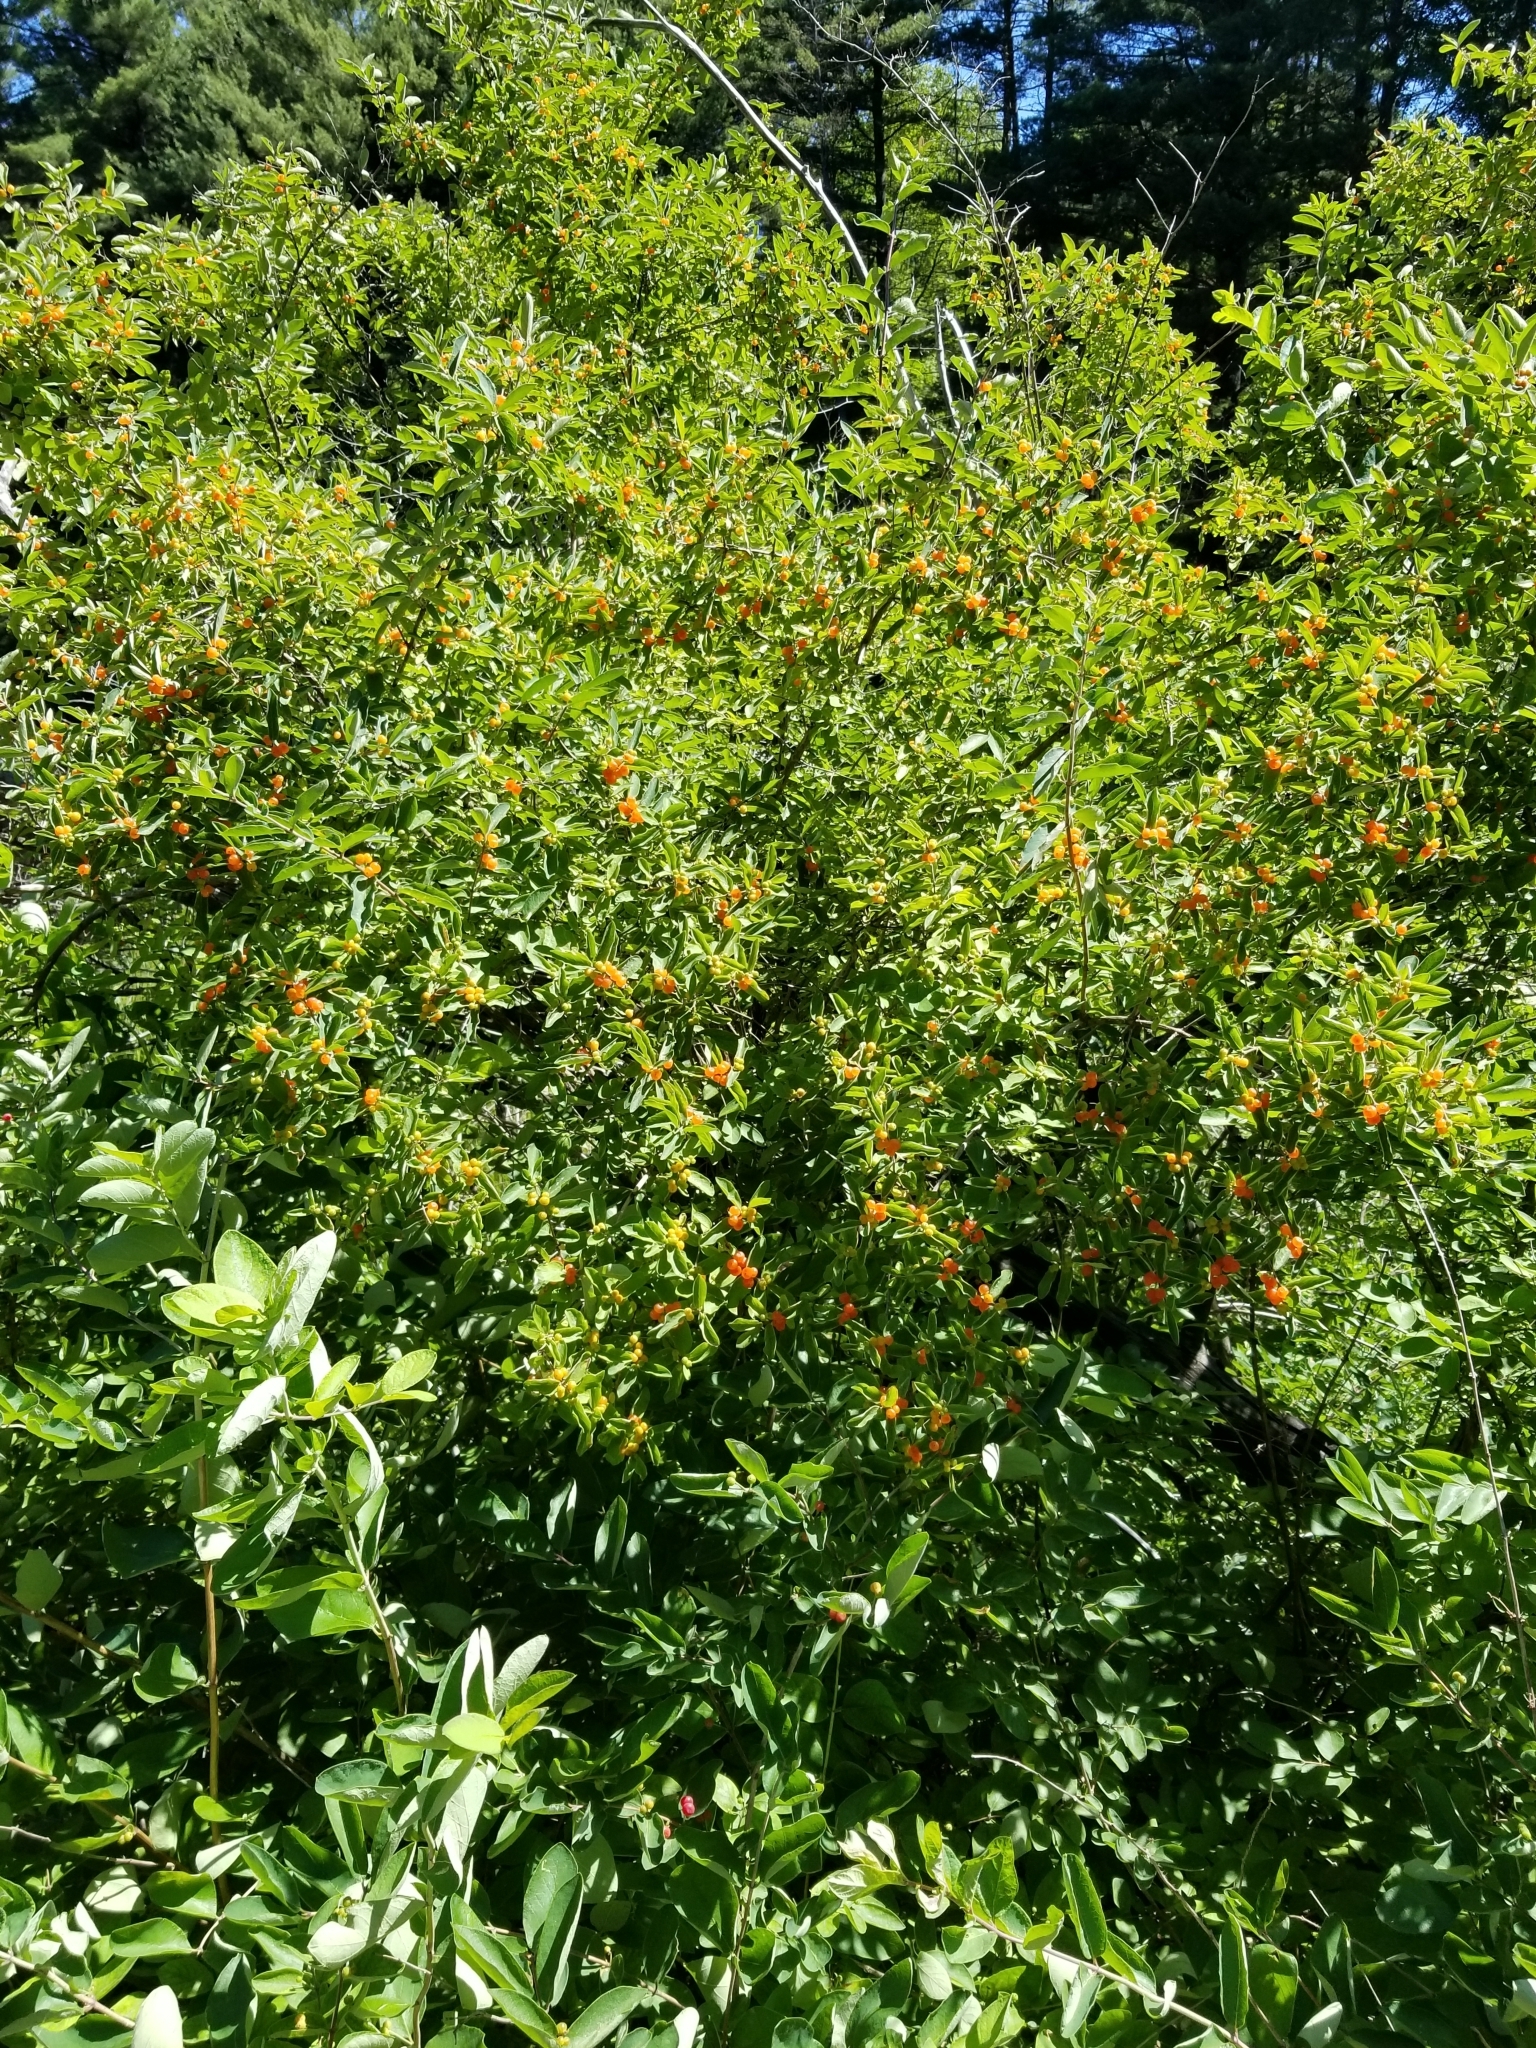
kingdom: Plantae
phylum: Tracheophyta
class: Magnoliopsida
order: Dipsacales
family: Caprifoliaceae
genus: Lonicera
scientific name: Lonicera bella
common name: Bell's honeysuckle
